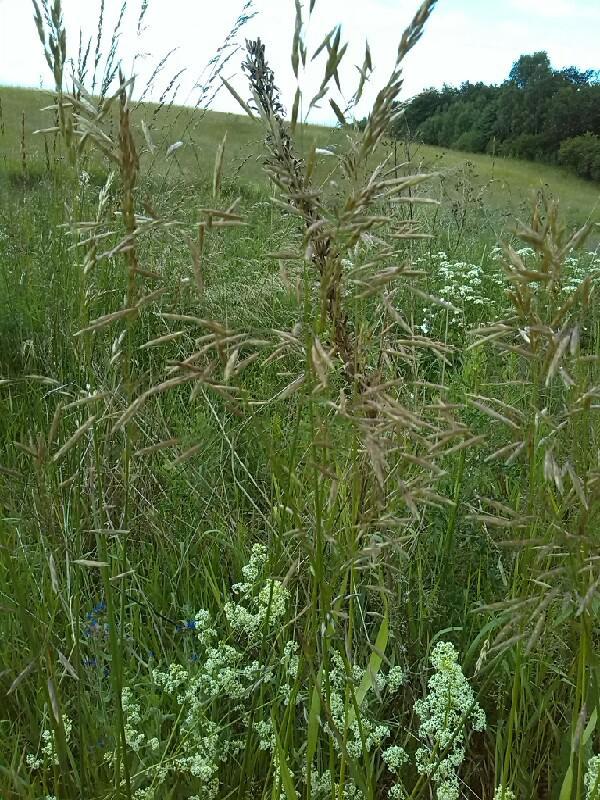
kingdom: Plantae
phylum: Tracheophyta
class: Liliopsida
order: Poales
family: Poaceae
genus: Bromus
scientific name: Bromus inermis
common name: Smooth brome
